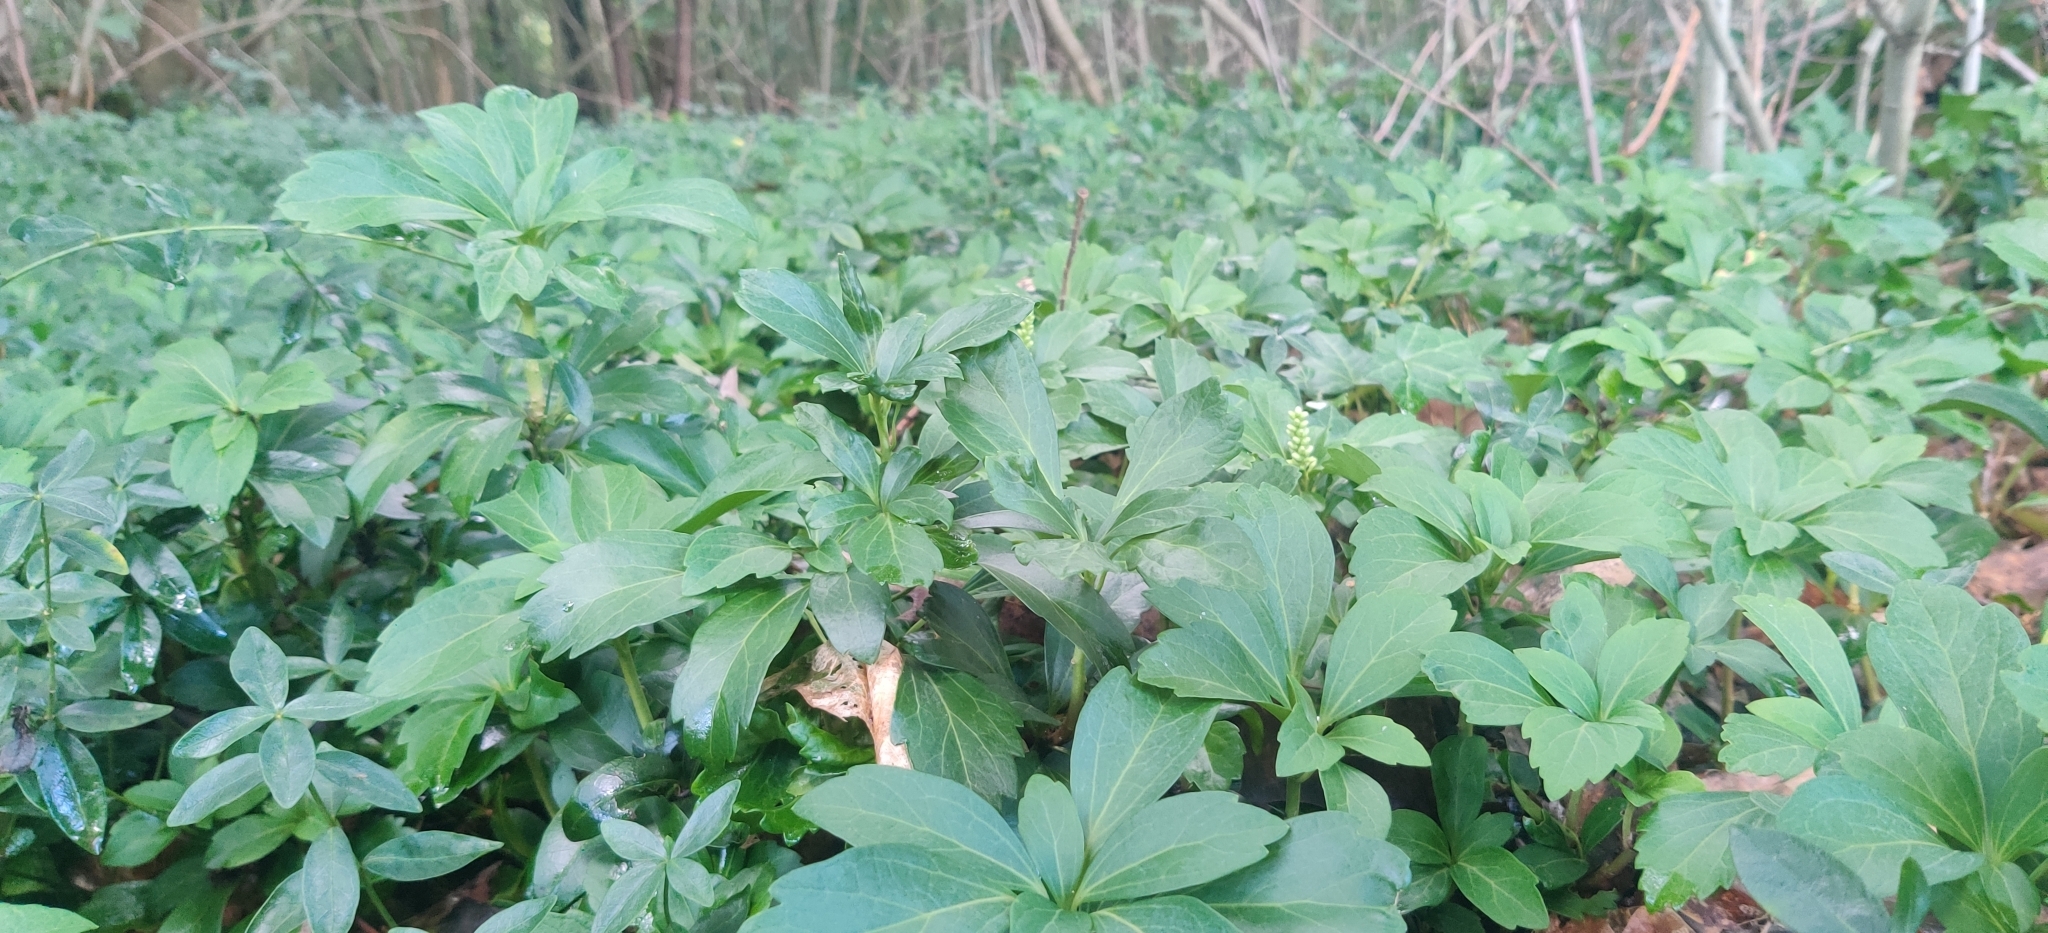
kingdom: Plantae
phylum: Tracheophyta
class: Magnoliopsida
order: Buxales
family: Buxaceae
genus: Pachysandra
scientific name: Pachysandra terminalis
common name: Japanese pachysandra
